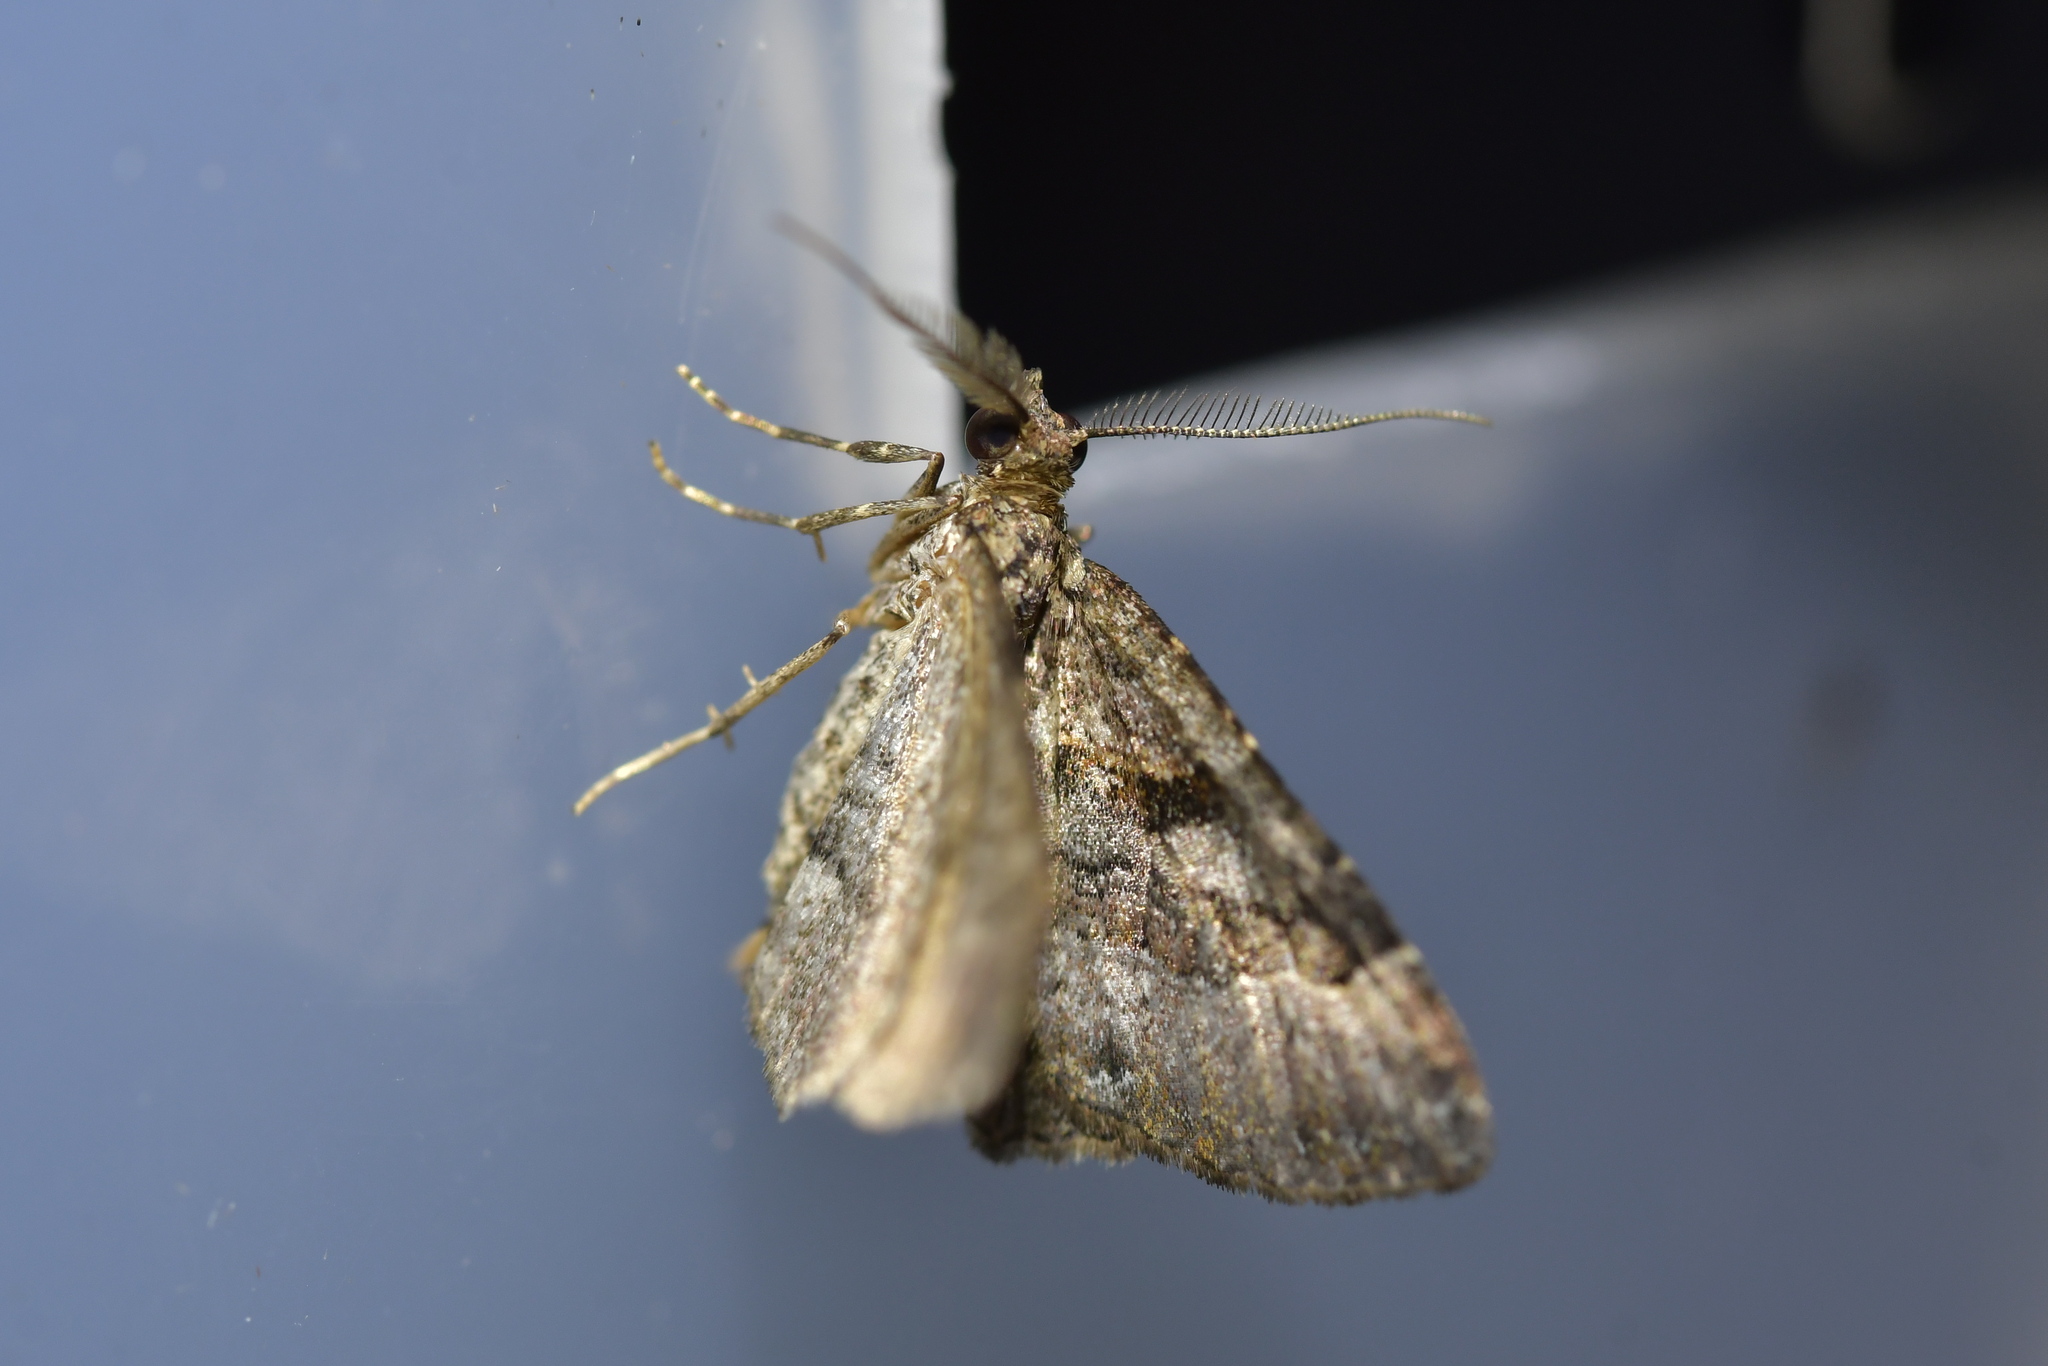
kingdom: Animalia
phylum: Arthropoda
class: Insecta
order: Lepidoptera
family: Geometridae
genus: Epyaxa
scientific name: Epyaxa lucidata
